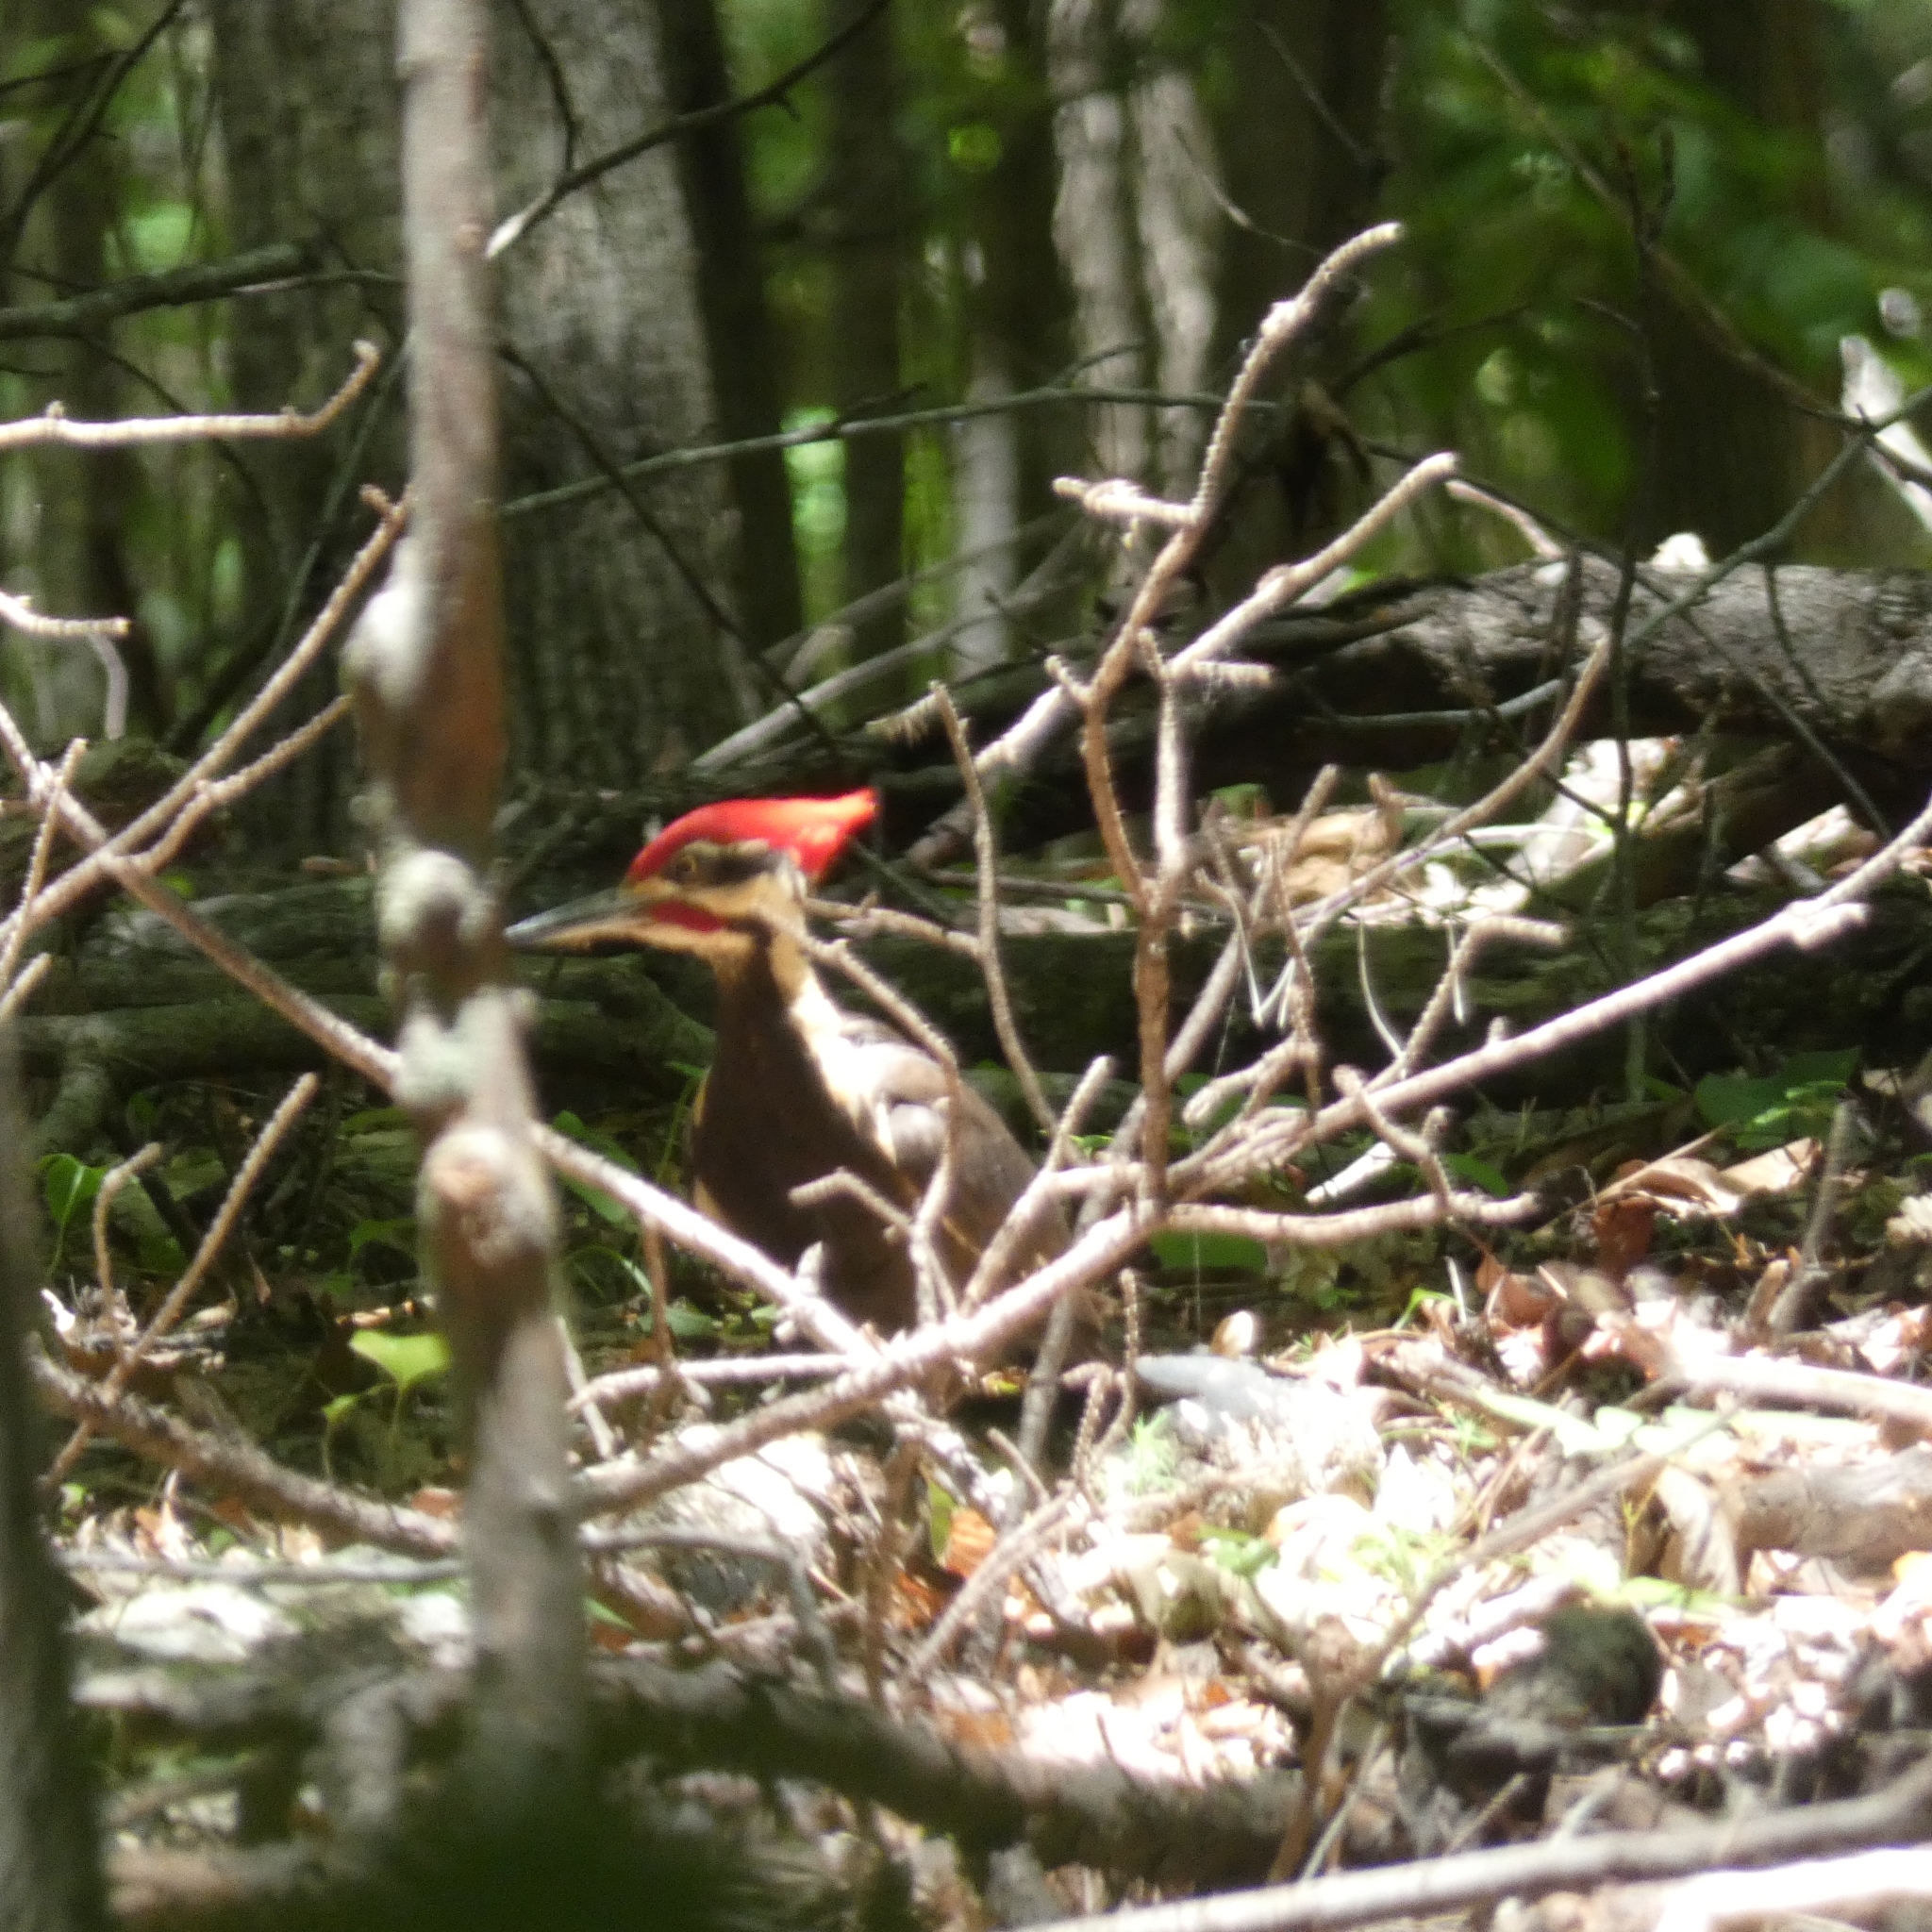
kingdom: Animalia
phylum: Chordata
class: Aves
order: Piciformes
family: Picidae
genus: Dryocopus
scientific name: Dryocopus pileatus
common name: Pileated woodpecker
